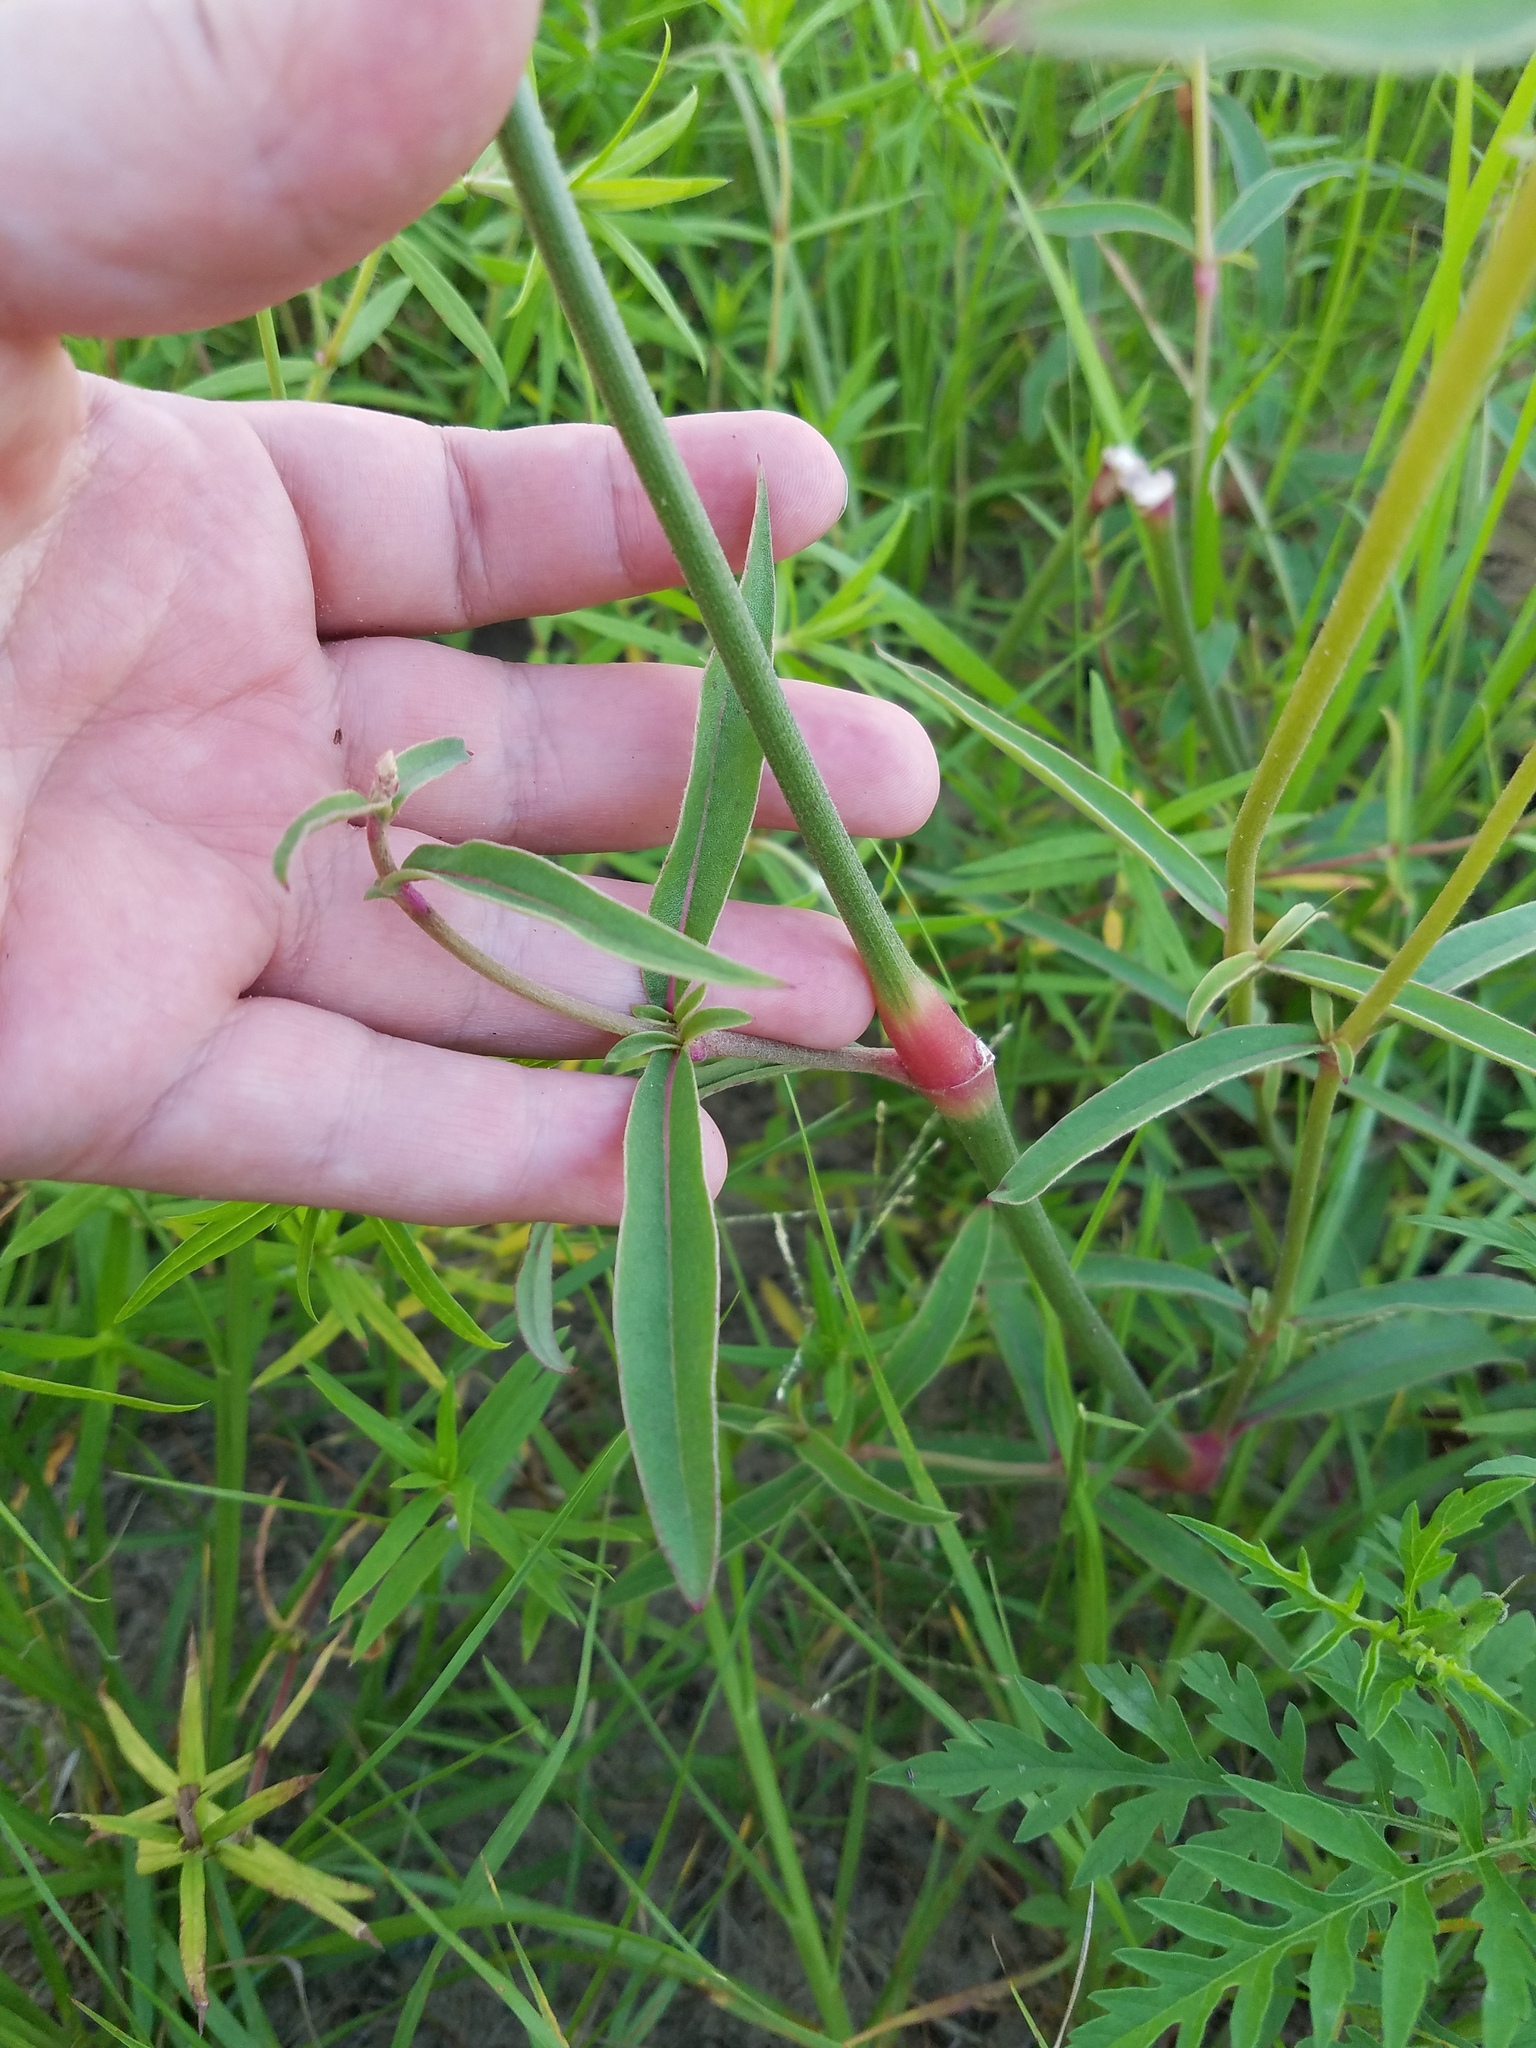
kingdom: Plantae
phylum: Tracheophyta
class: Magnoliopsida
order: Caryophyllales
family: Amaranthaceae
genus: Froelichia
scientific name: Froelichia floridana
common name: Florida snake-cotton
